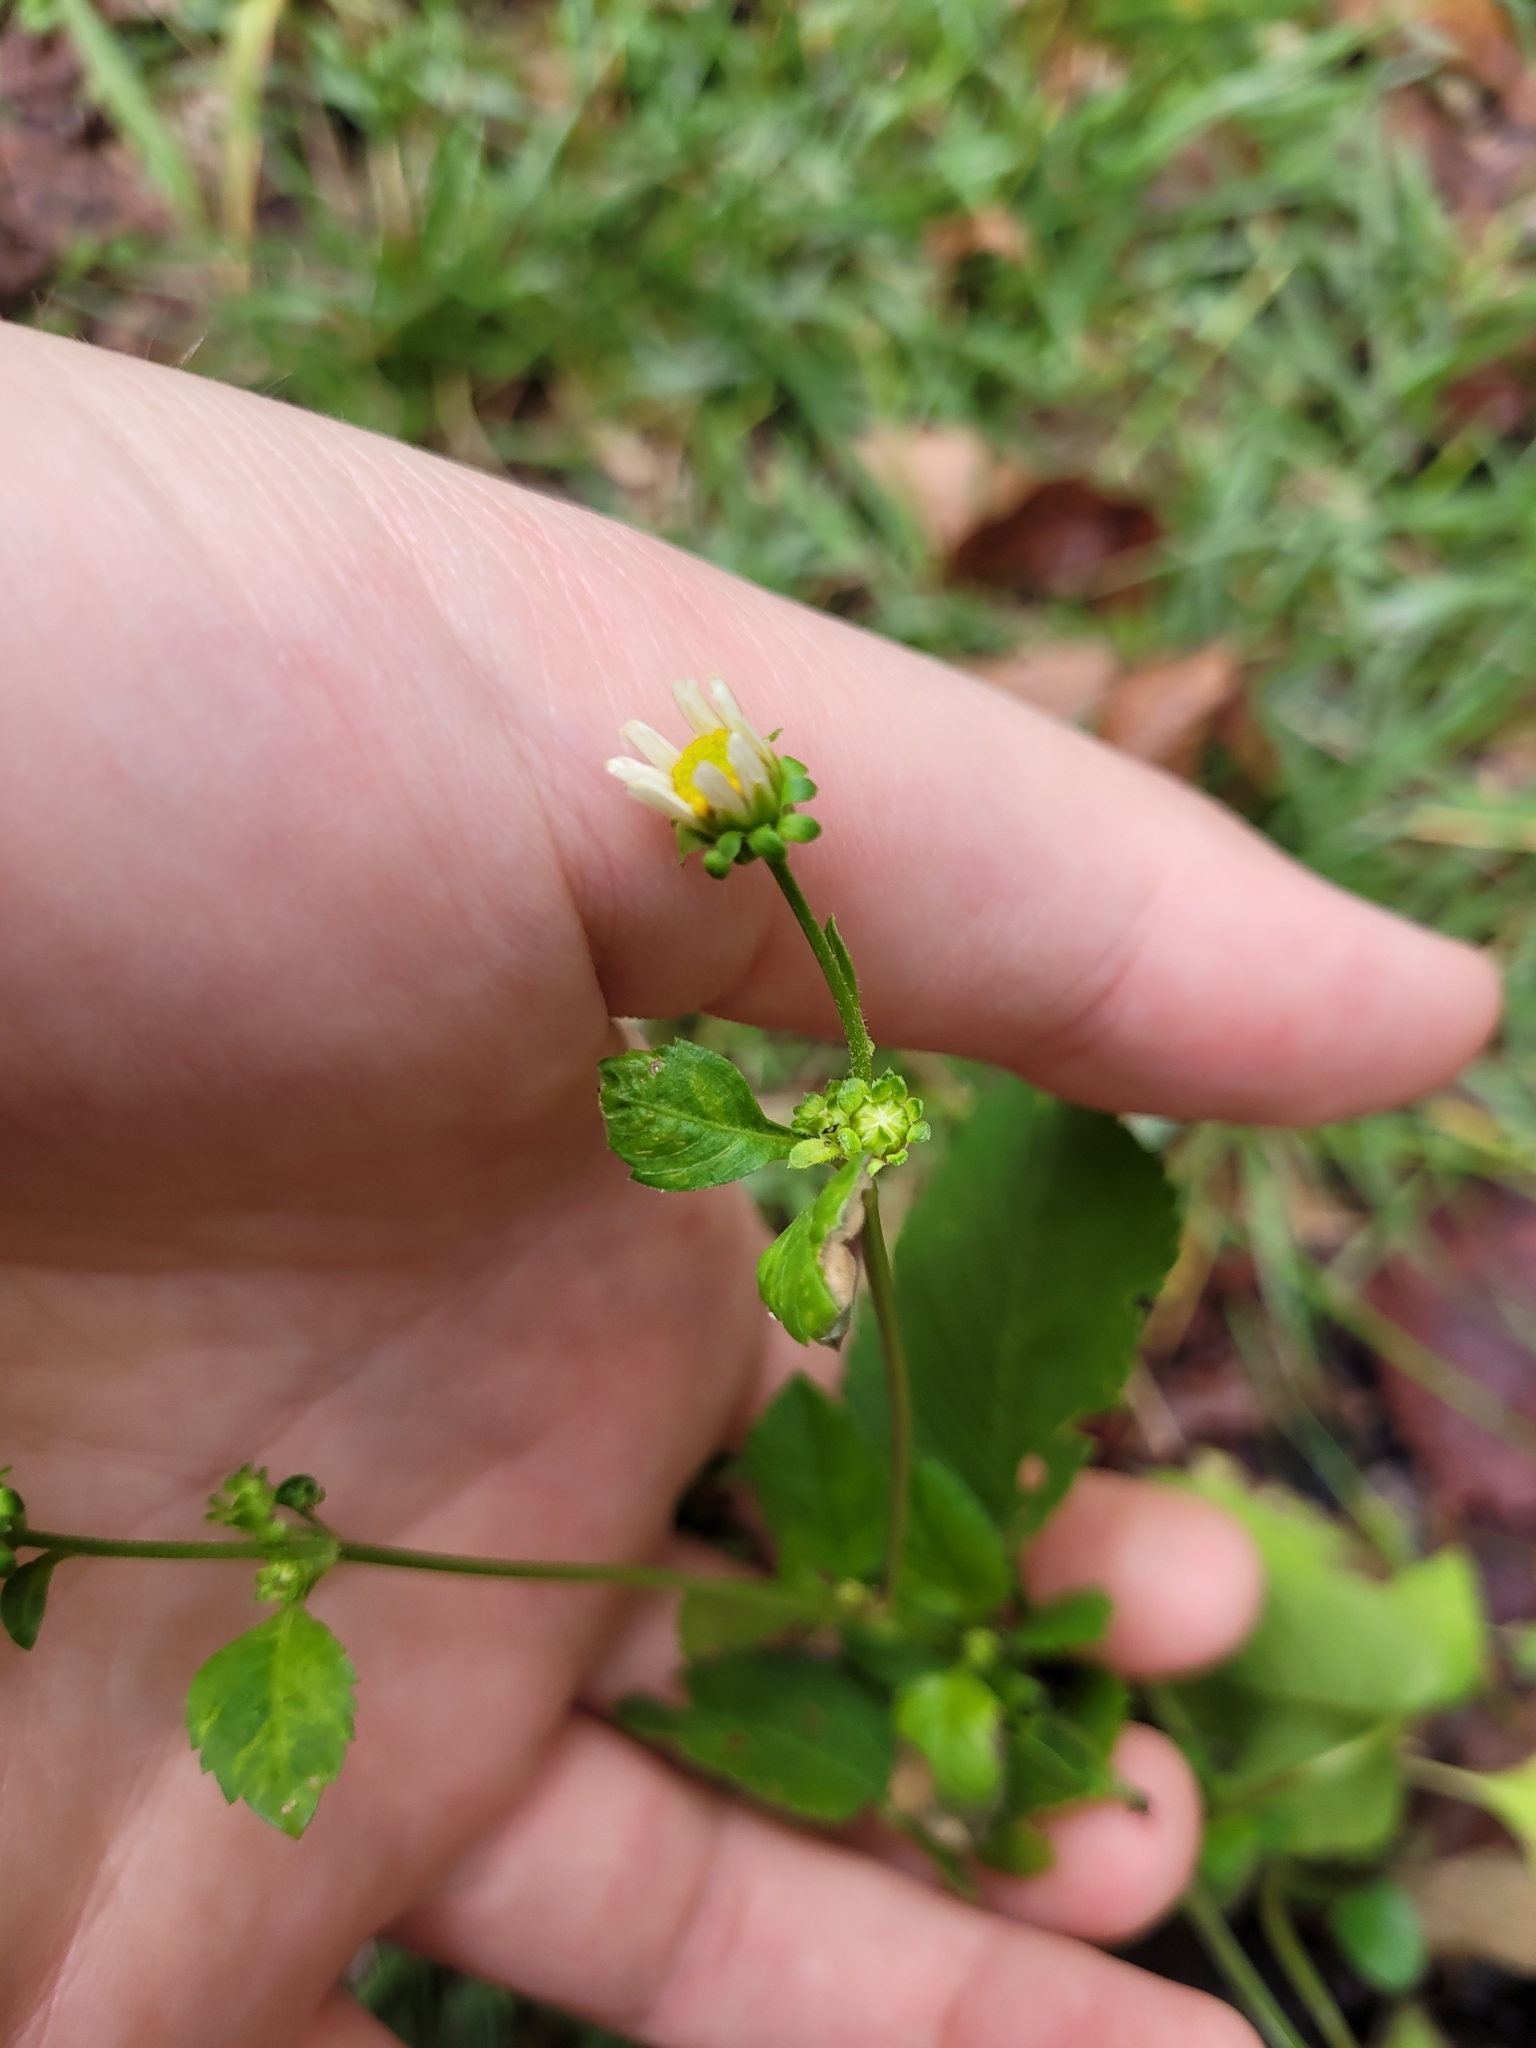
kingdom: Plantae
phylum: Tracheophyta
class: Magnoliopsida
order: Asterales
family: Asteraceae
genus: Bidens
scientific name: Bidens alba
